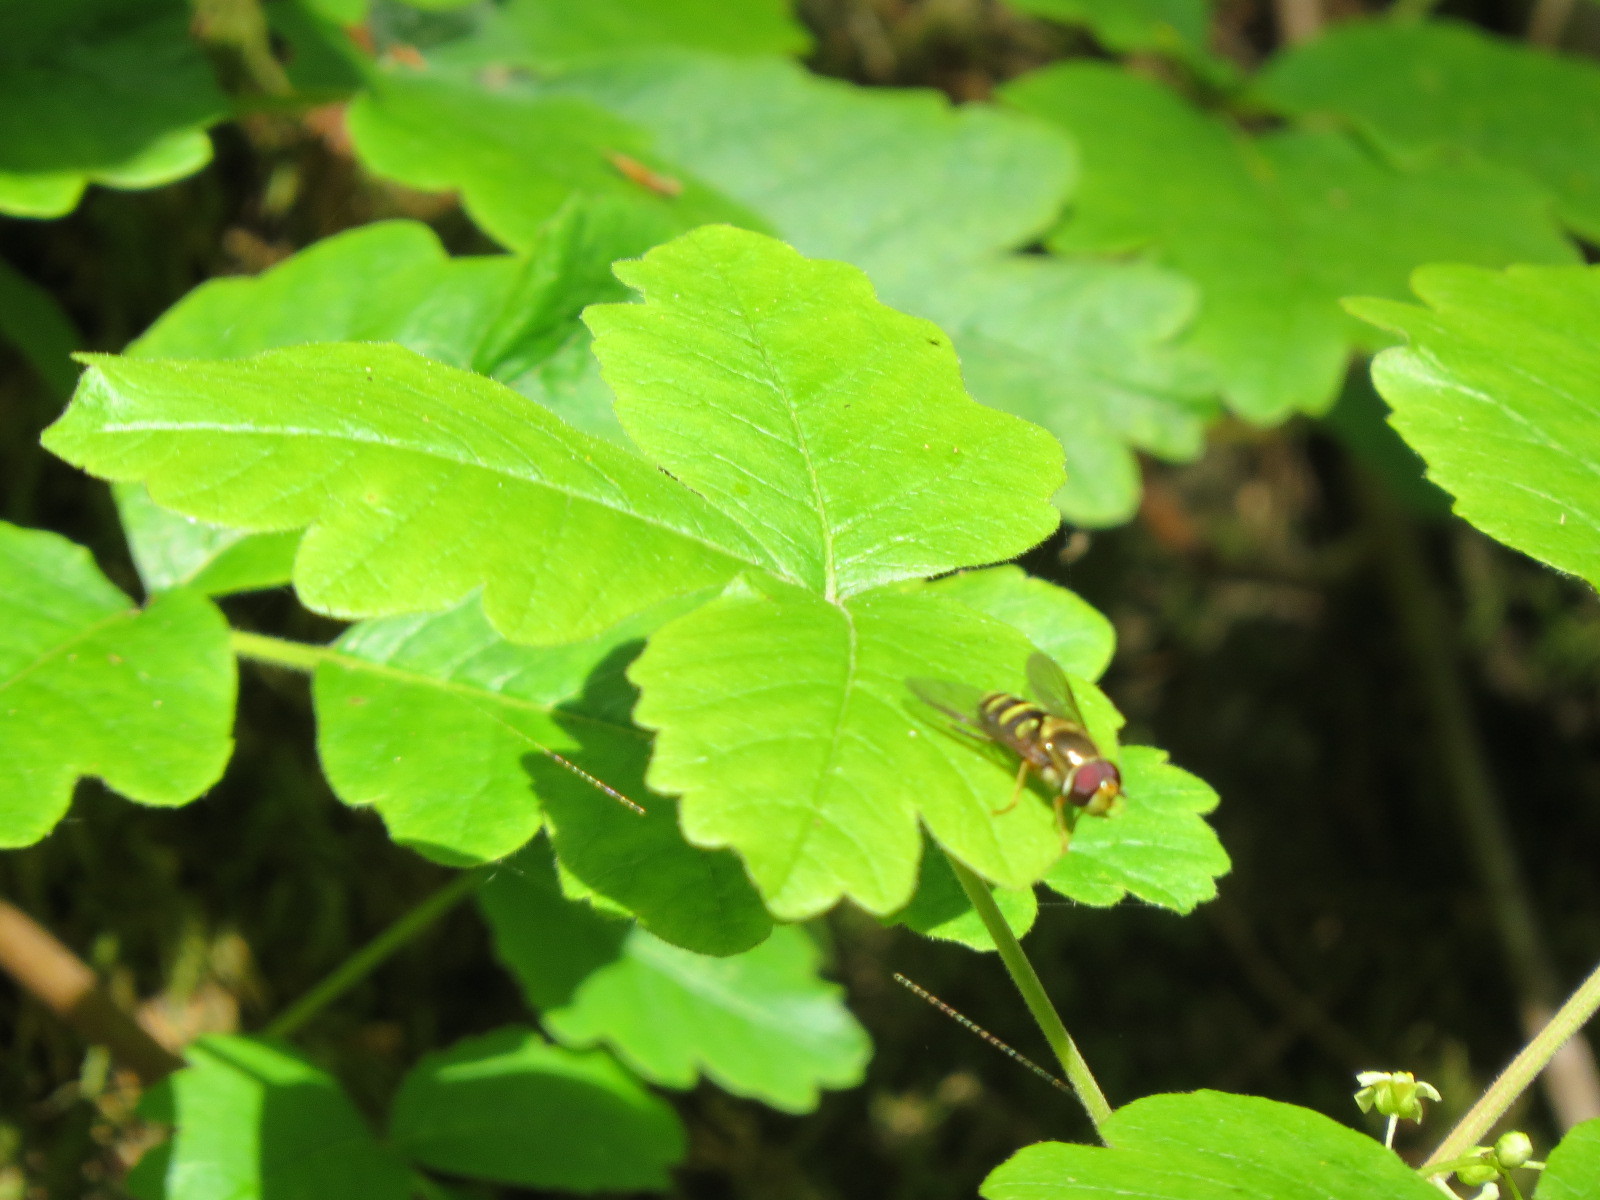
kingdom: Animalia
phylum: Arthropoda
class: Insecta
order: Diptera
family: Syrphidae
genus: Syrphus
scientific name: Syrphus opinator
